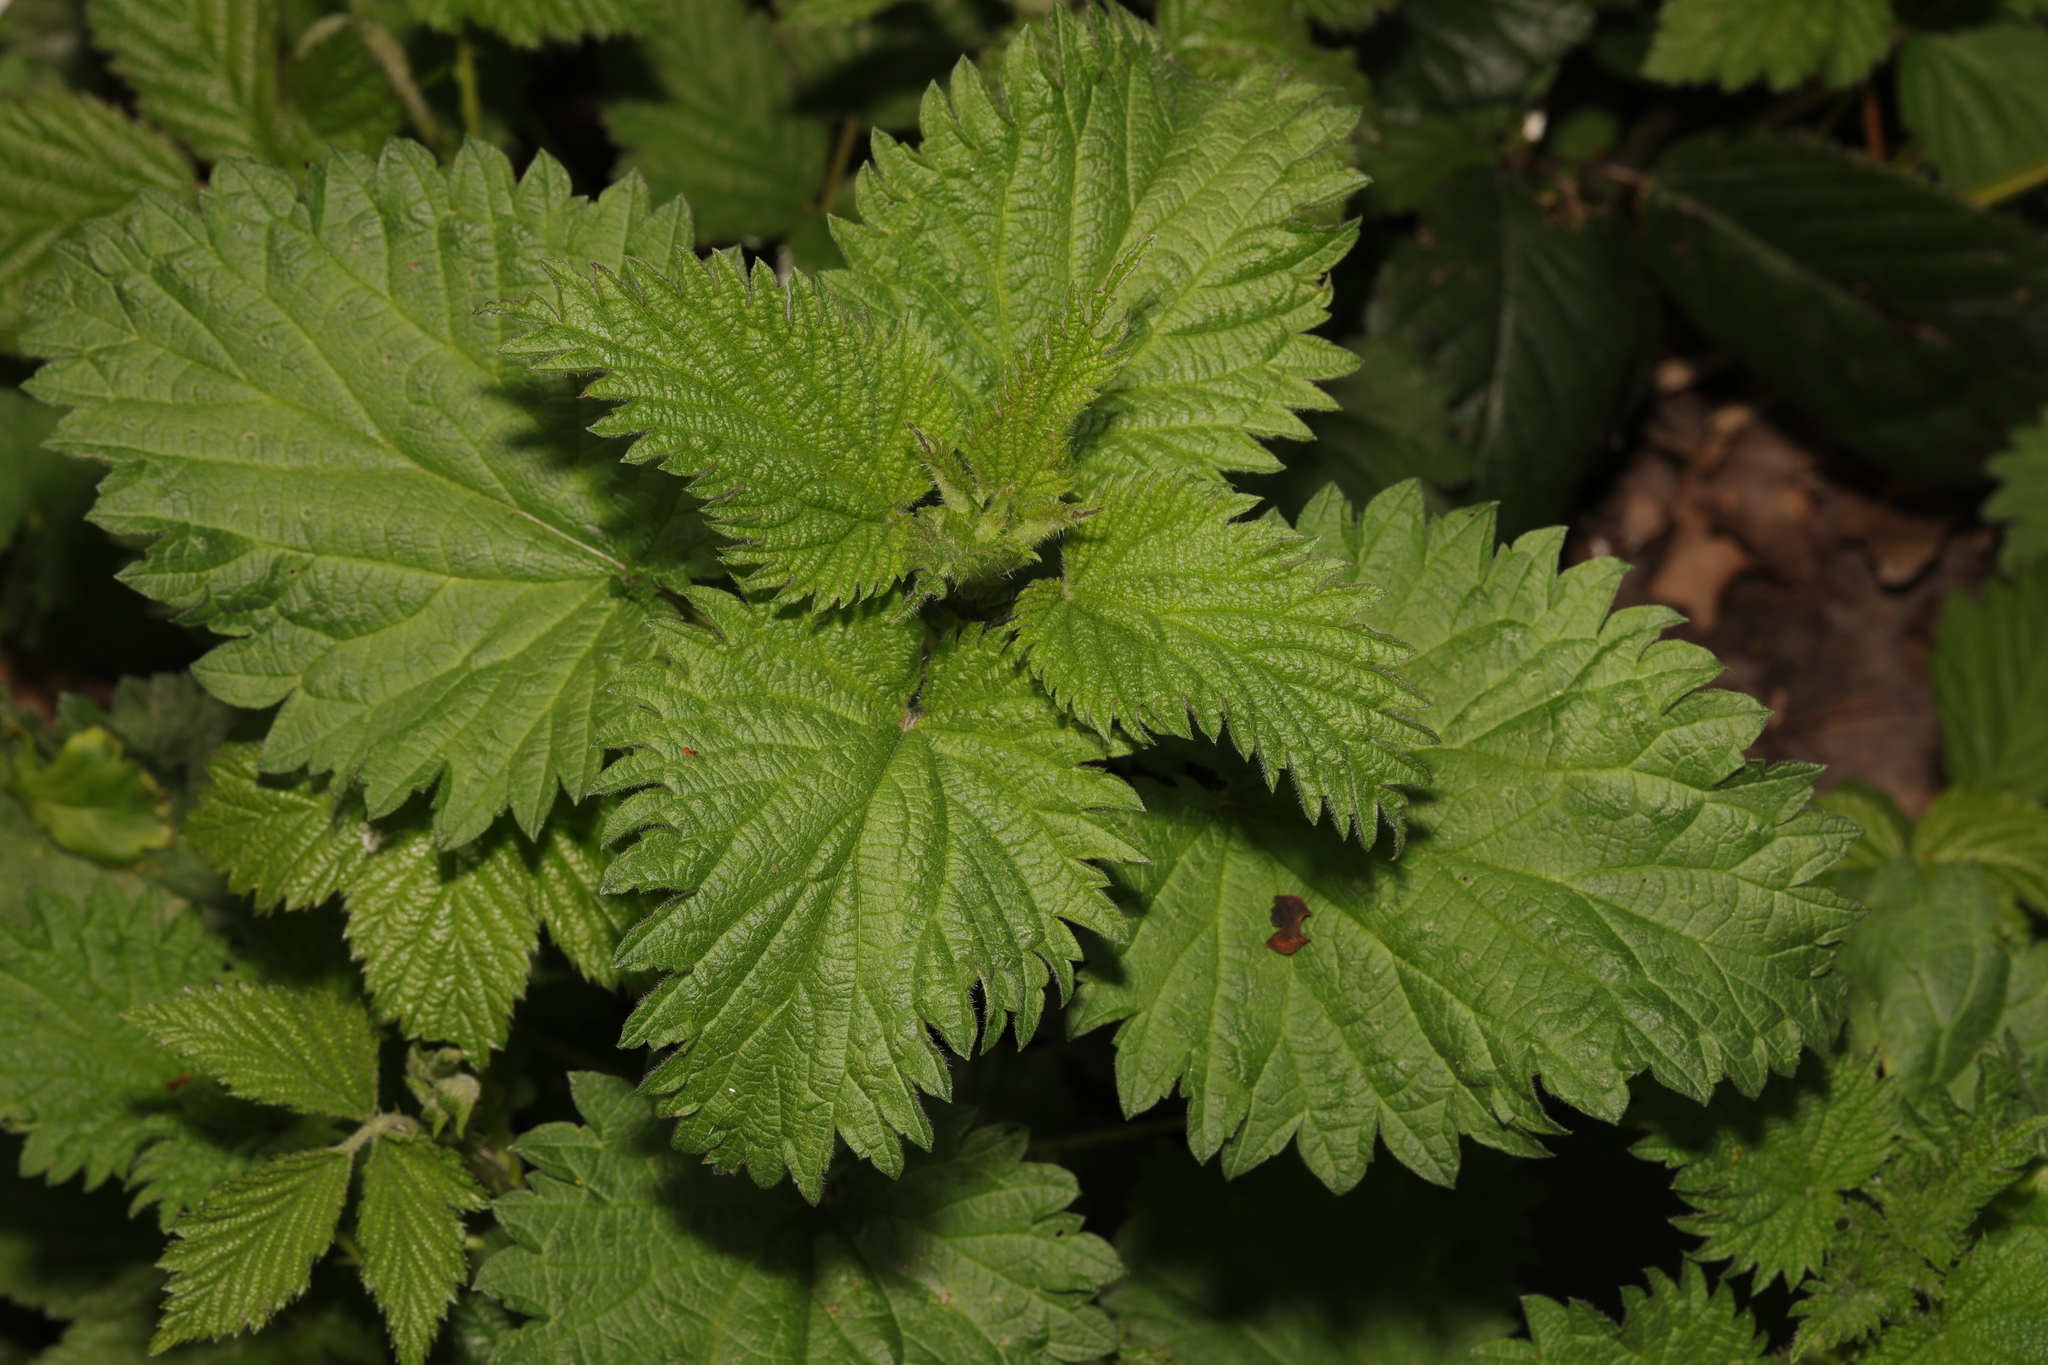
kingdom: Plantae
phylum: Tracheophyta
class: Magnoliopsida
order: Rosales
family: Urticaceae
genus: Urtica
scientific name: Urtica dioica
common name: Common nettle
